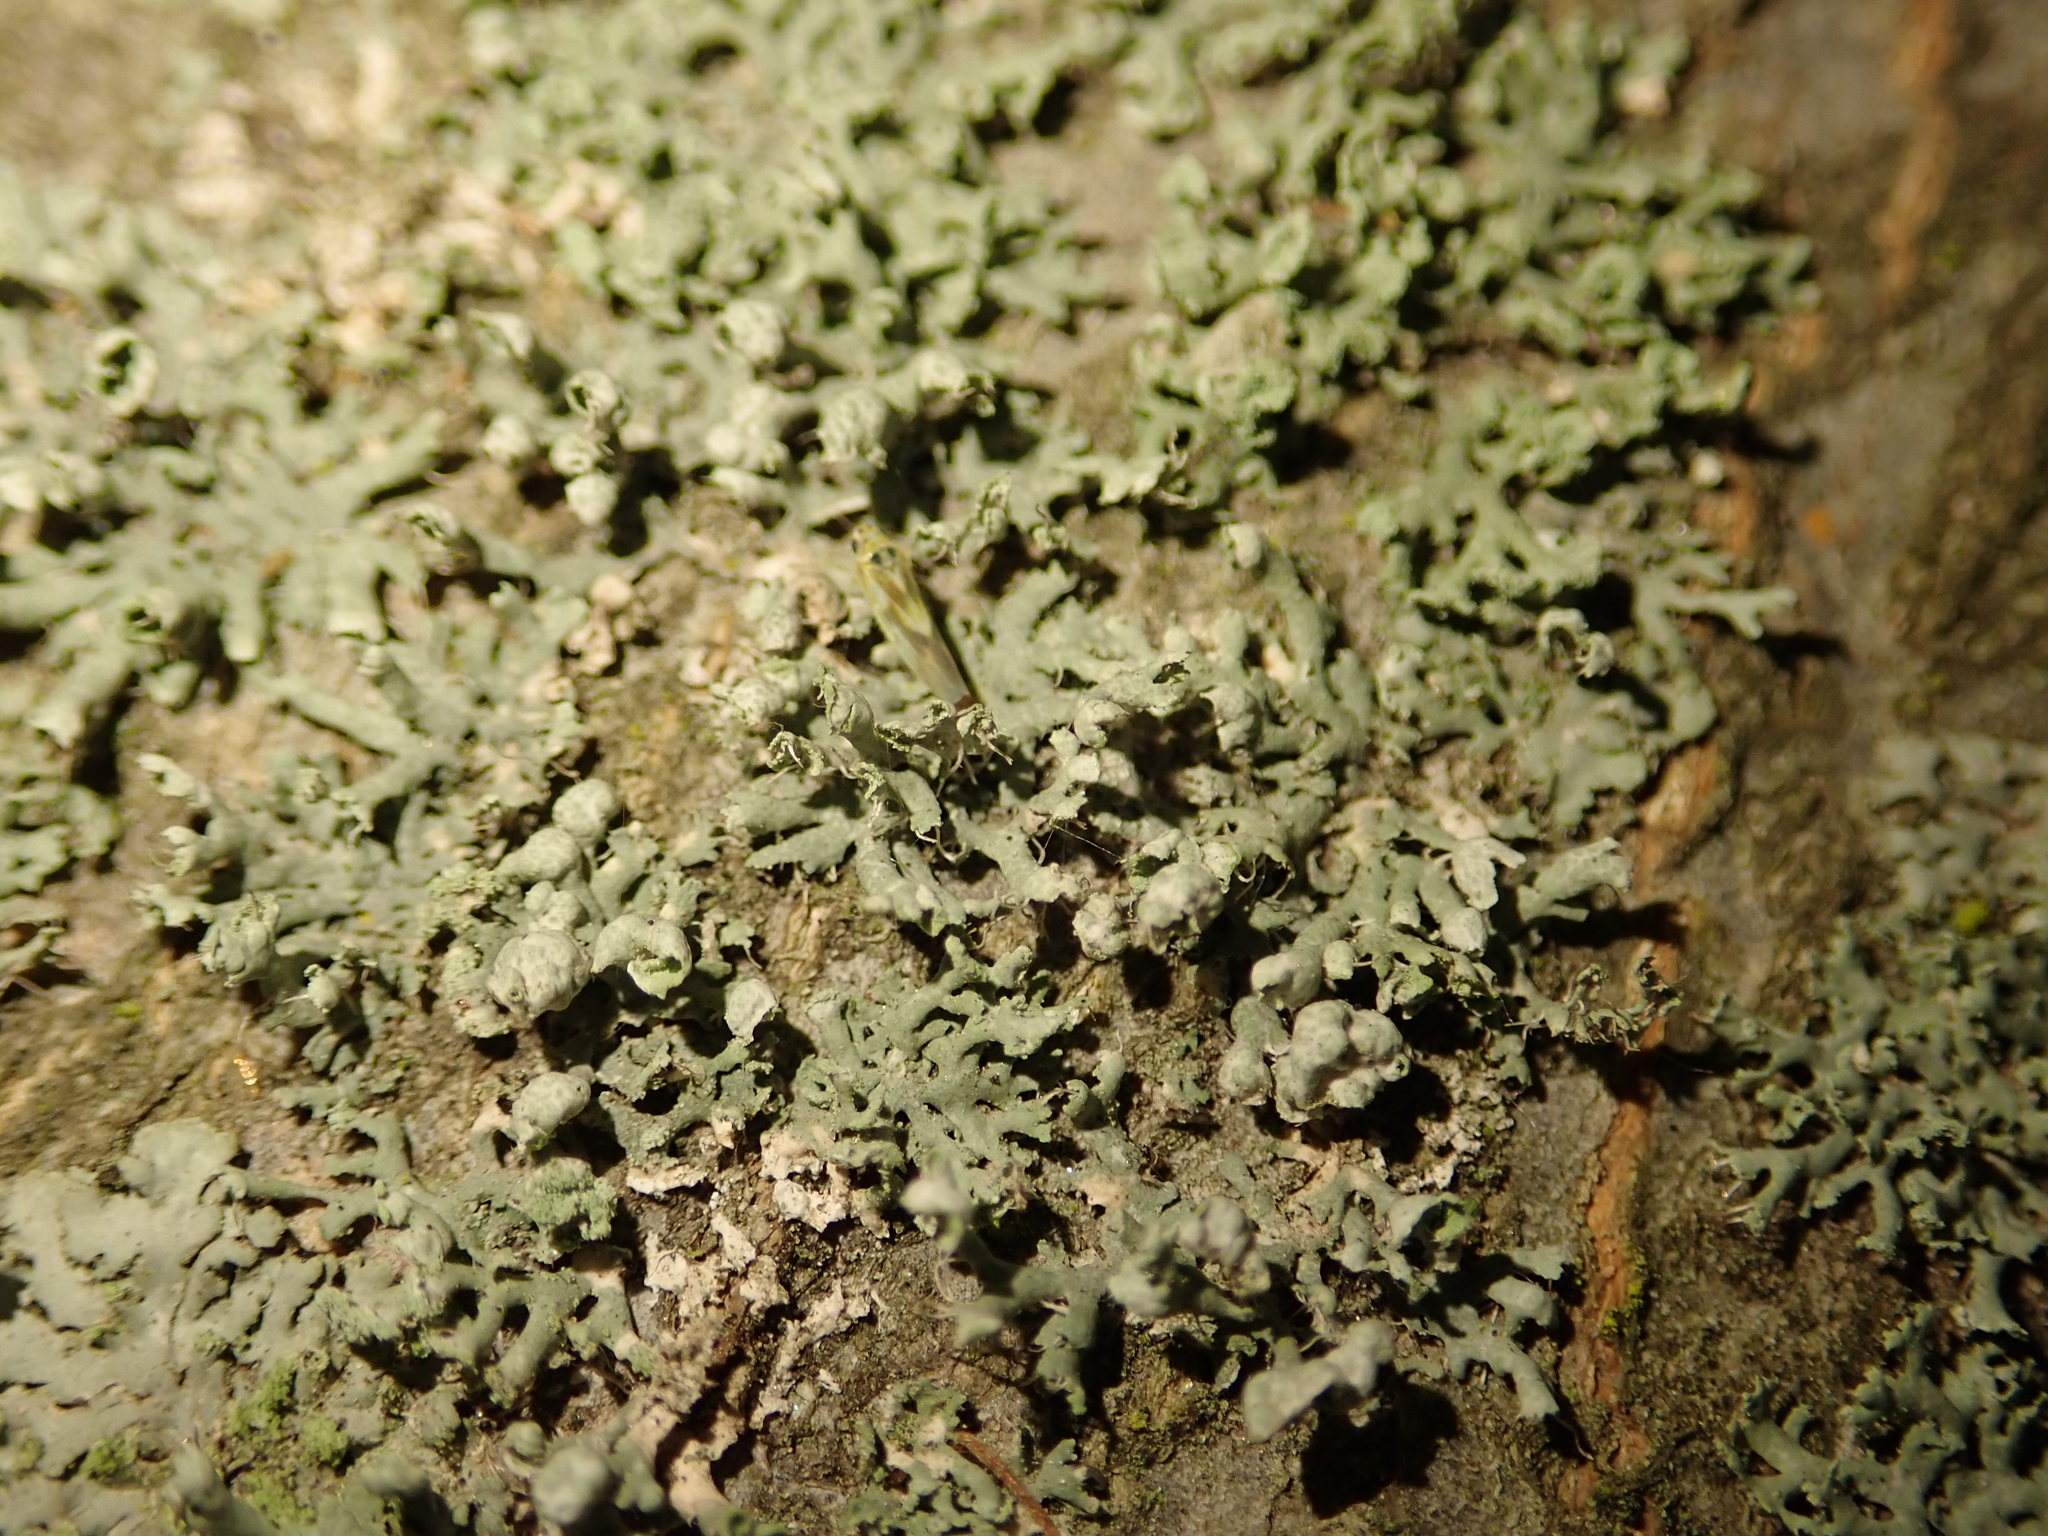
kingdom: Fungi
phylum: Ascomycota
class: Lecanoromycetes
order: Caliciales
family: Physciaceae
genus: Physcia
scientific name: Physcia adscendens
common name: Hooded rosette lichen
